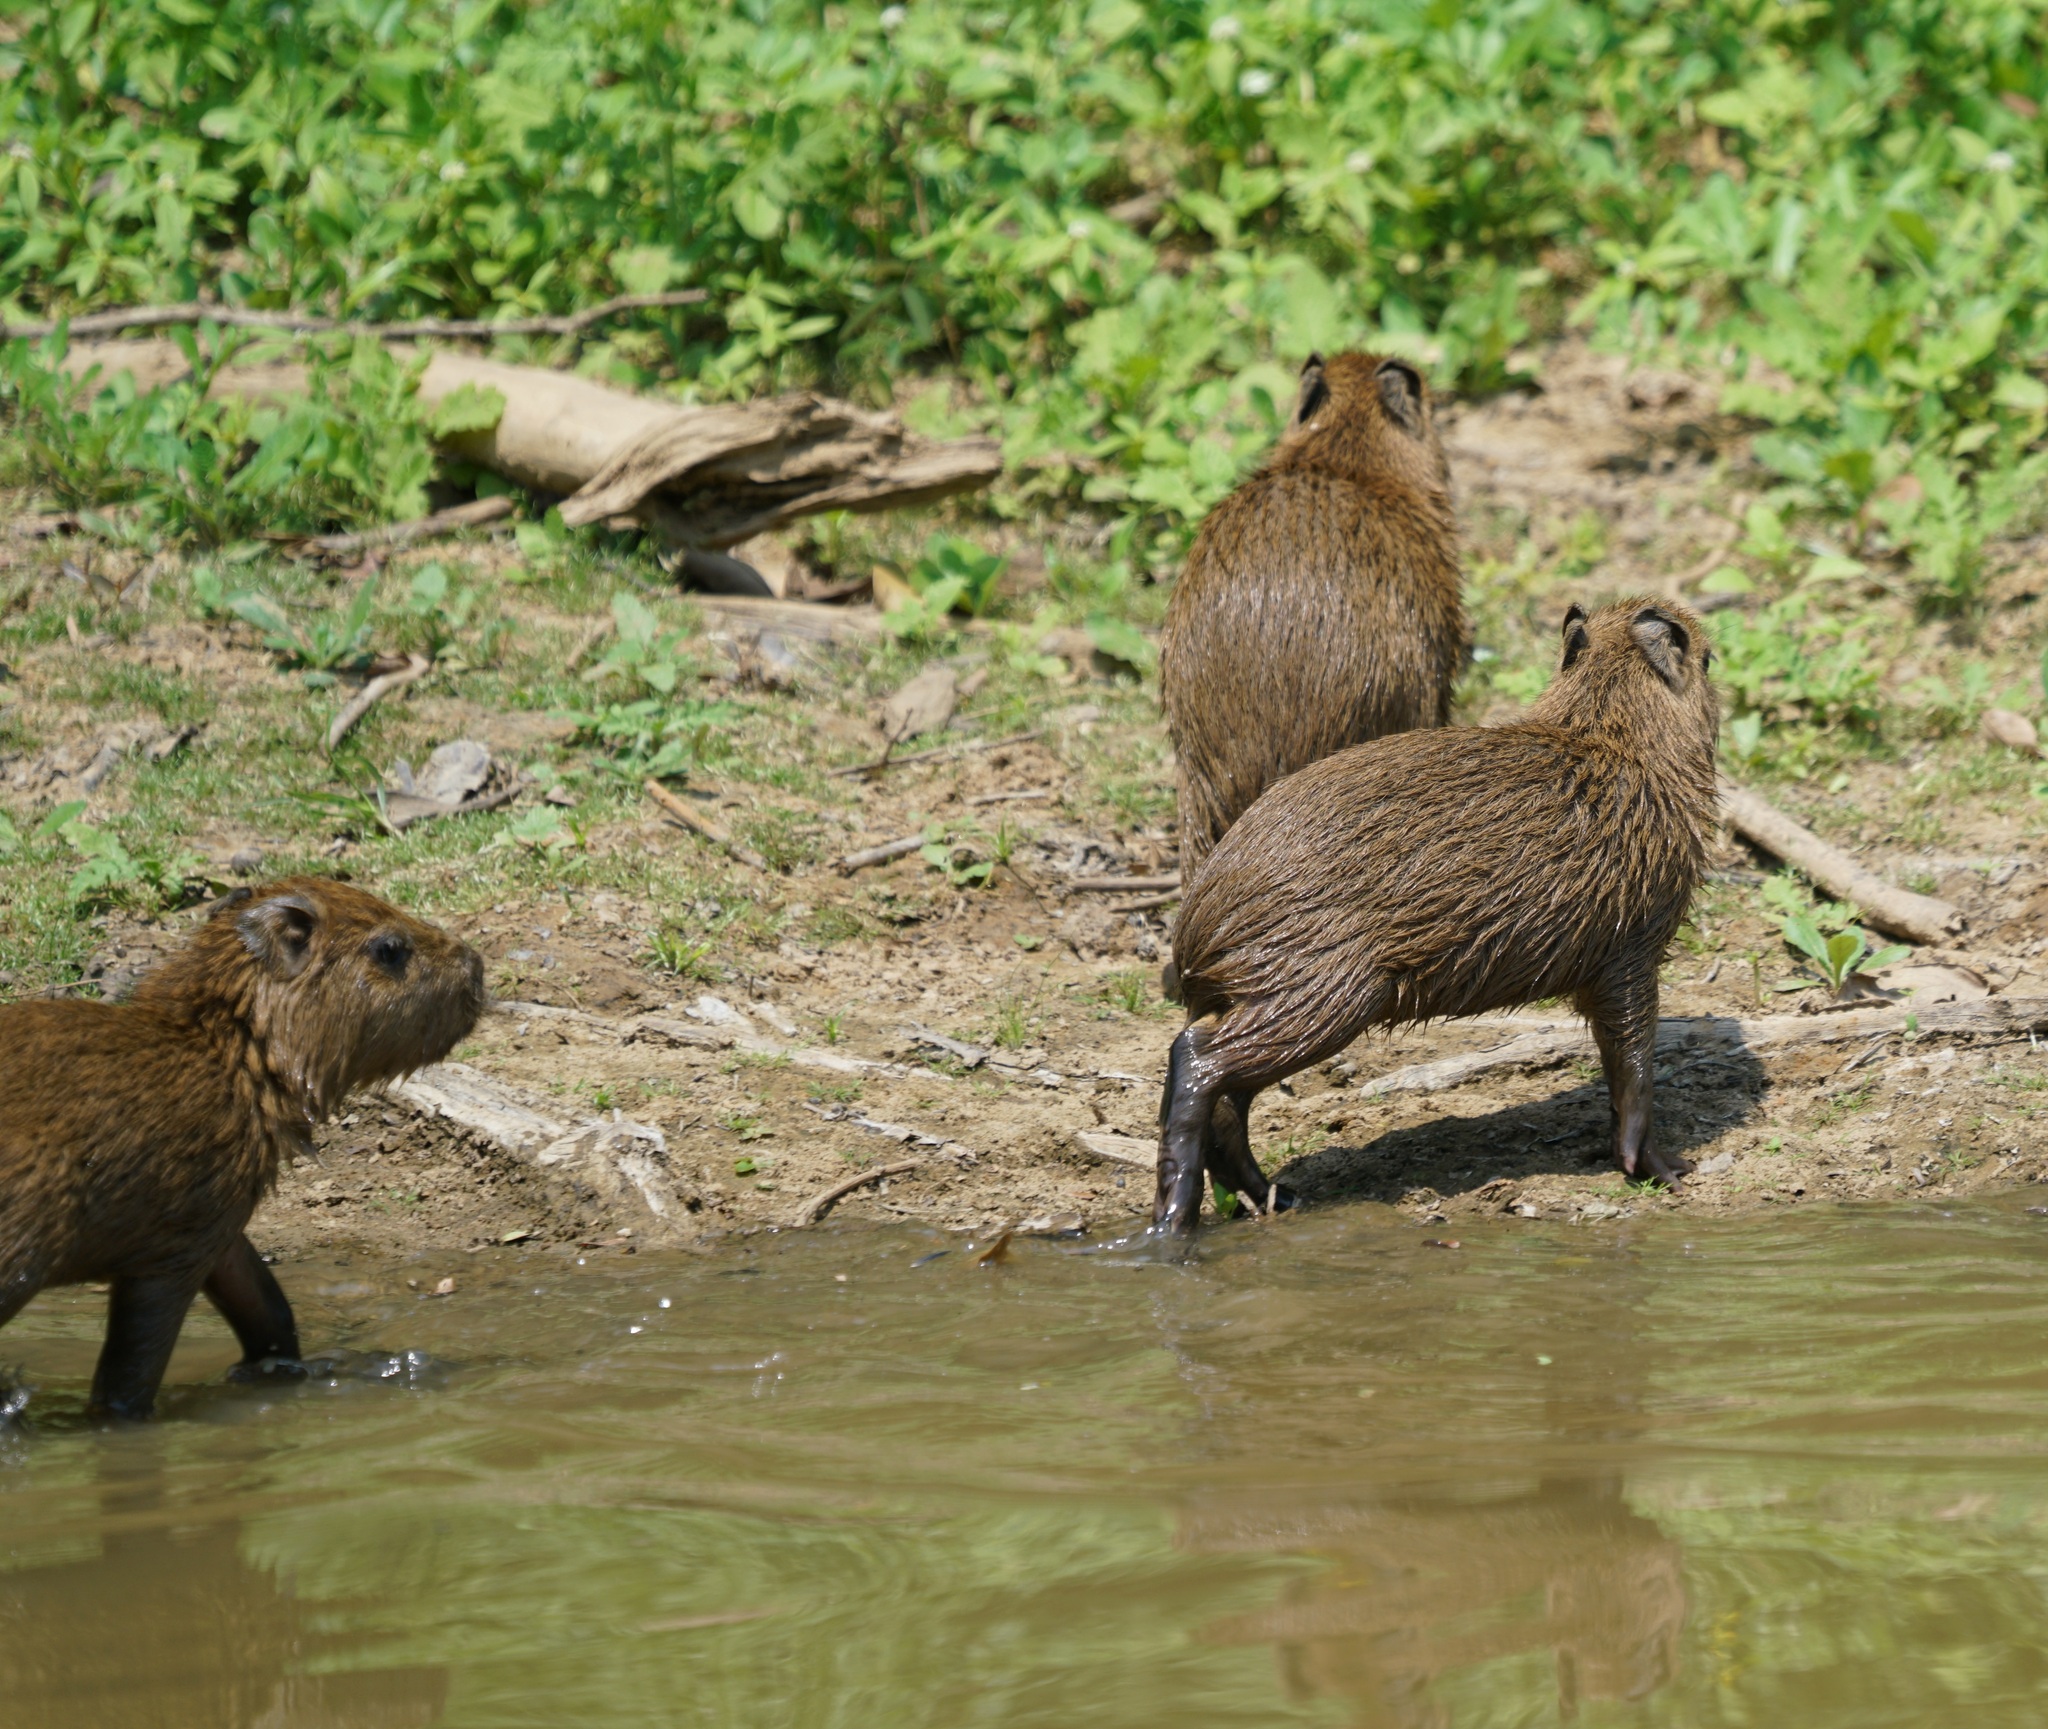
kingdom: Animalia
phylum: Chordata
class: Mammalia
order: Rodentia
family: Caviidae
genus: Hydrochoerus
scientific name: Hydrochoerus hydrochaeris
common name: Capybara
